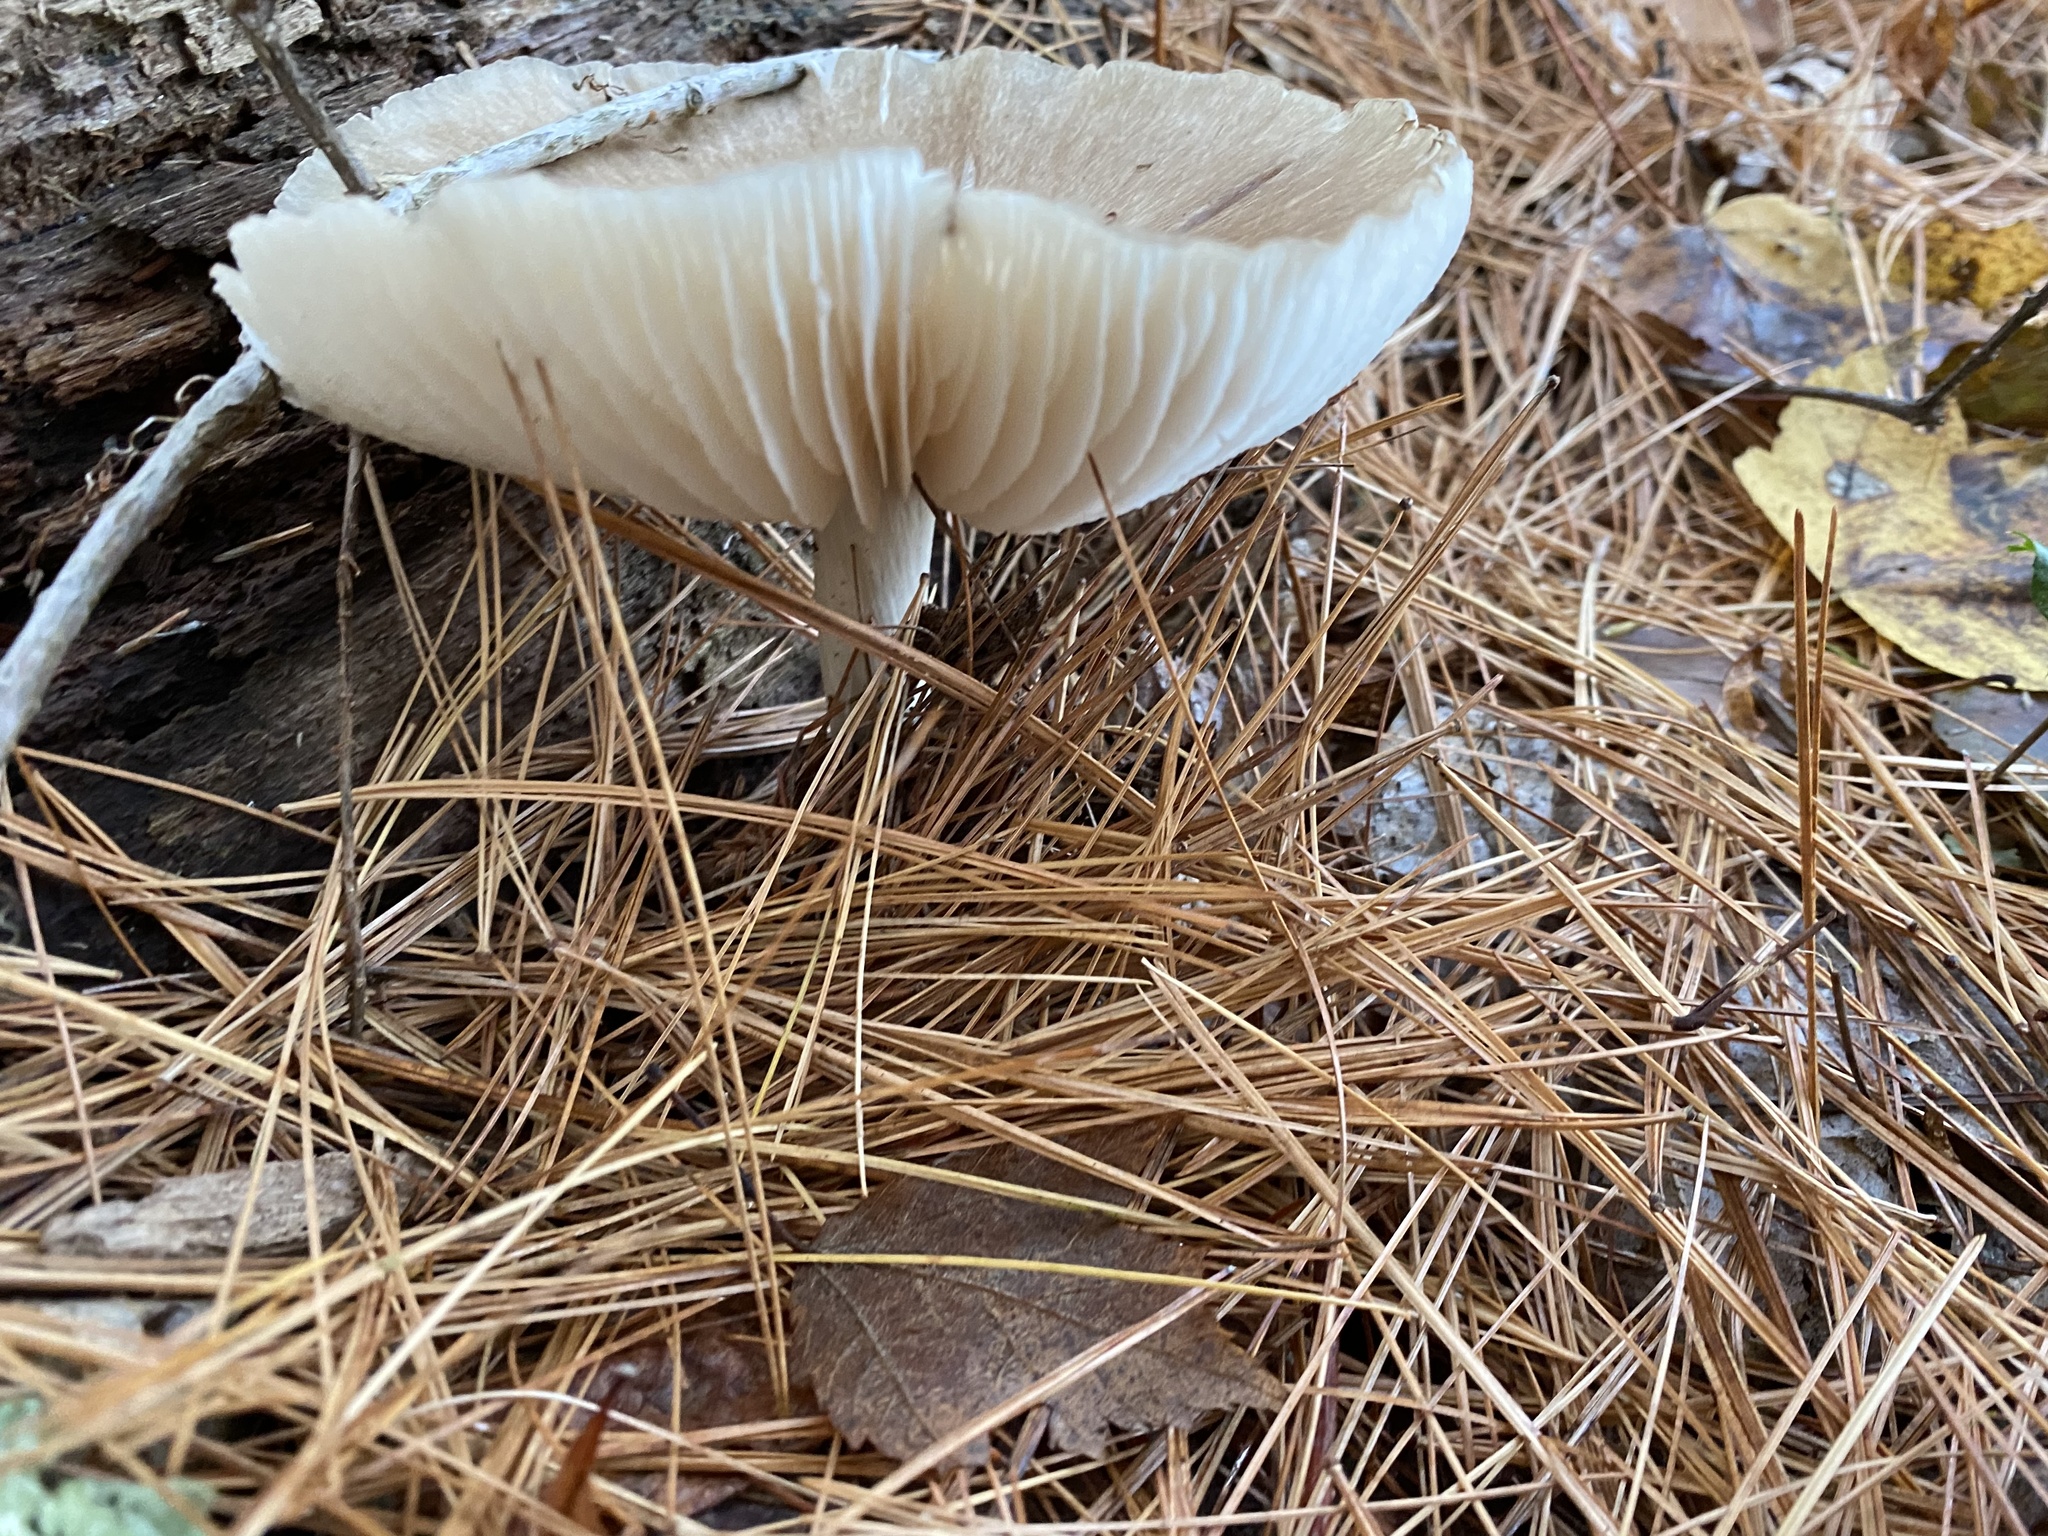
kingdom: Fungi
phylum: Basidiomycota
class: Agaricomycetes
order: Agaricales
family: Tricholomataceae
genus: Megacollybia
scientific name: Megacollybia rodmanii
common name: Eastern american platterful mushroom
